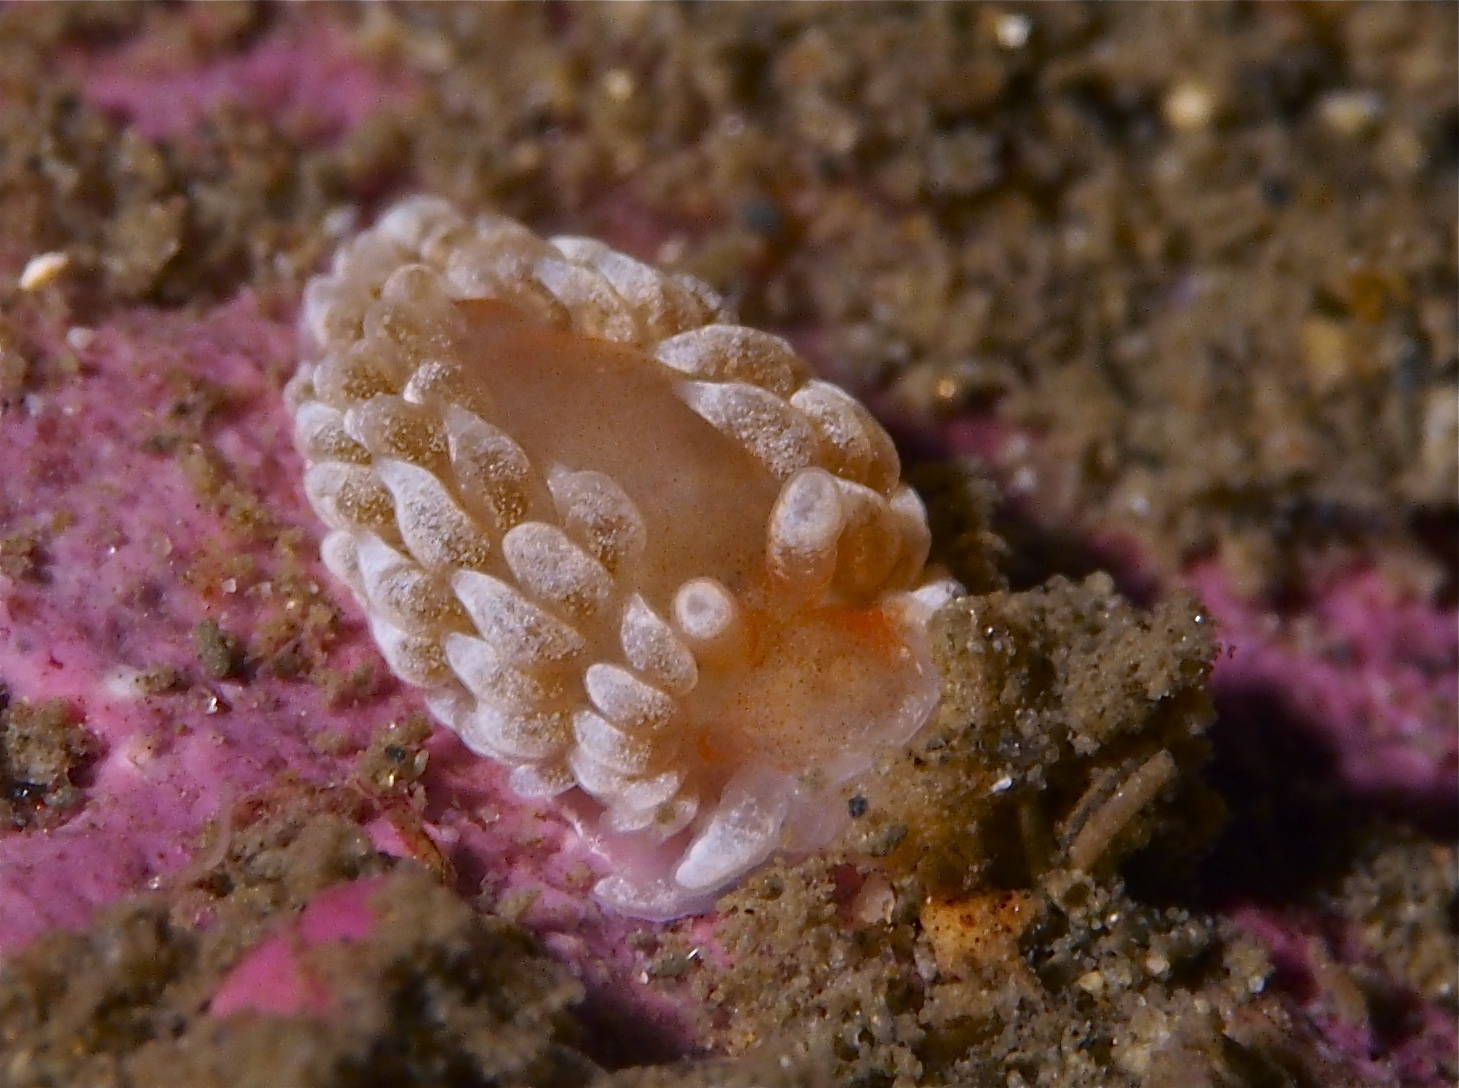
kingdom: Animalia
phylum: Mollusca
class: Gastropoda
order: Nudibranchia
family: Aeolidiidae
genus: Aeolidiella
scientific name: Aeolidiella glauca
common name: Orange-brown aeolid
